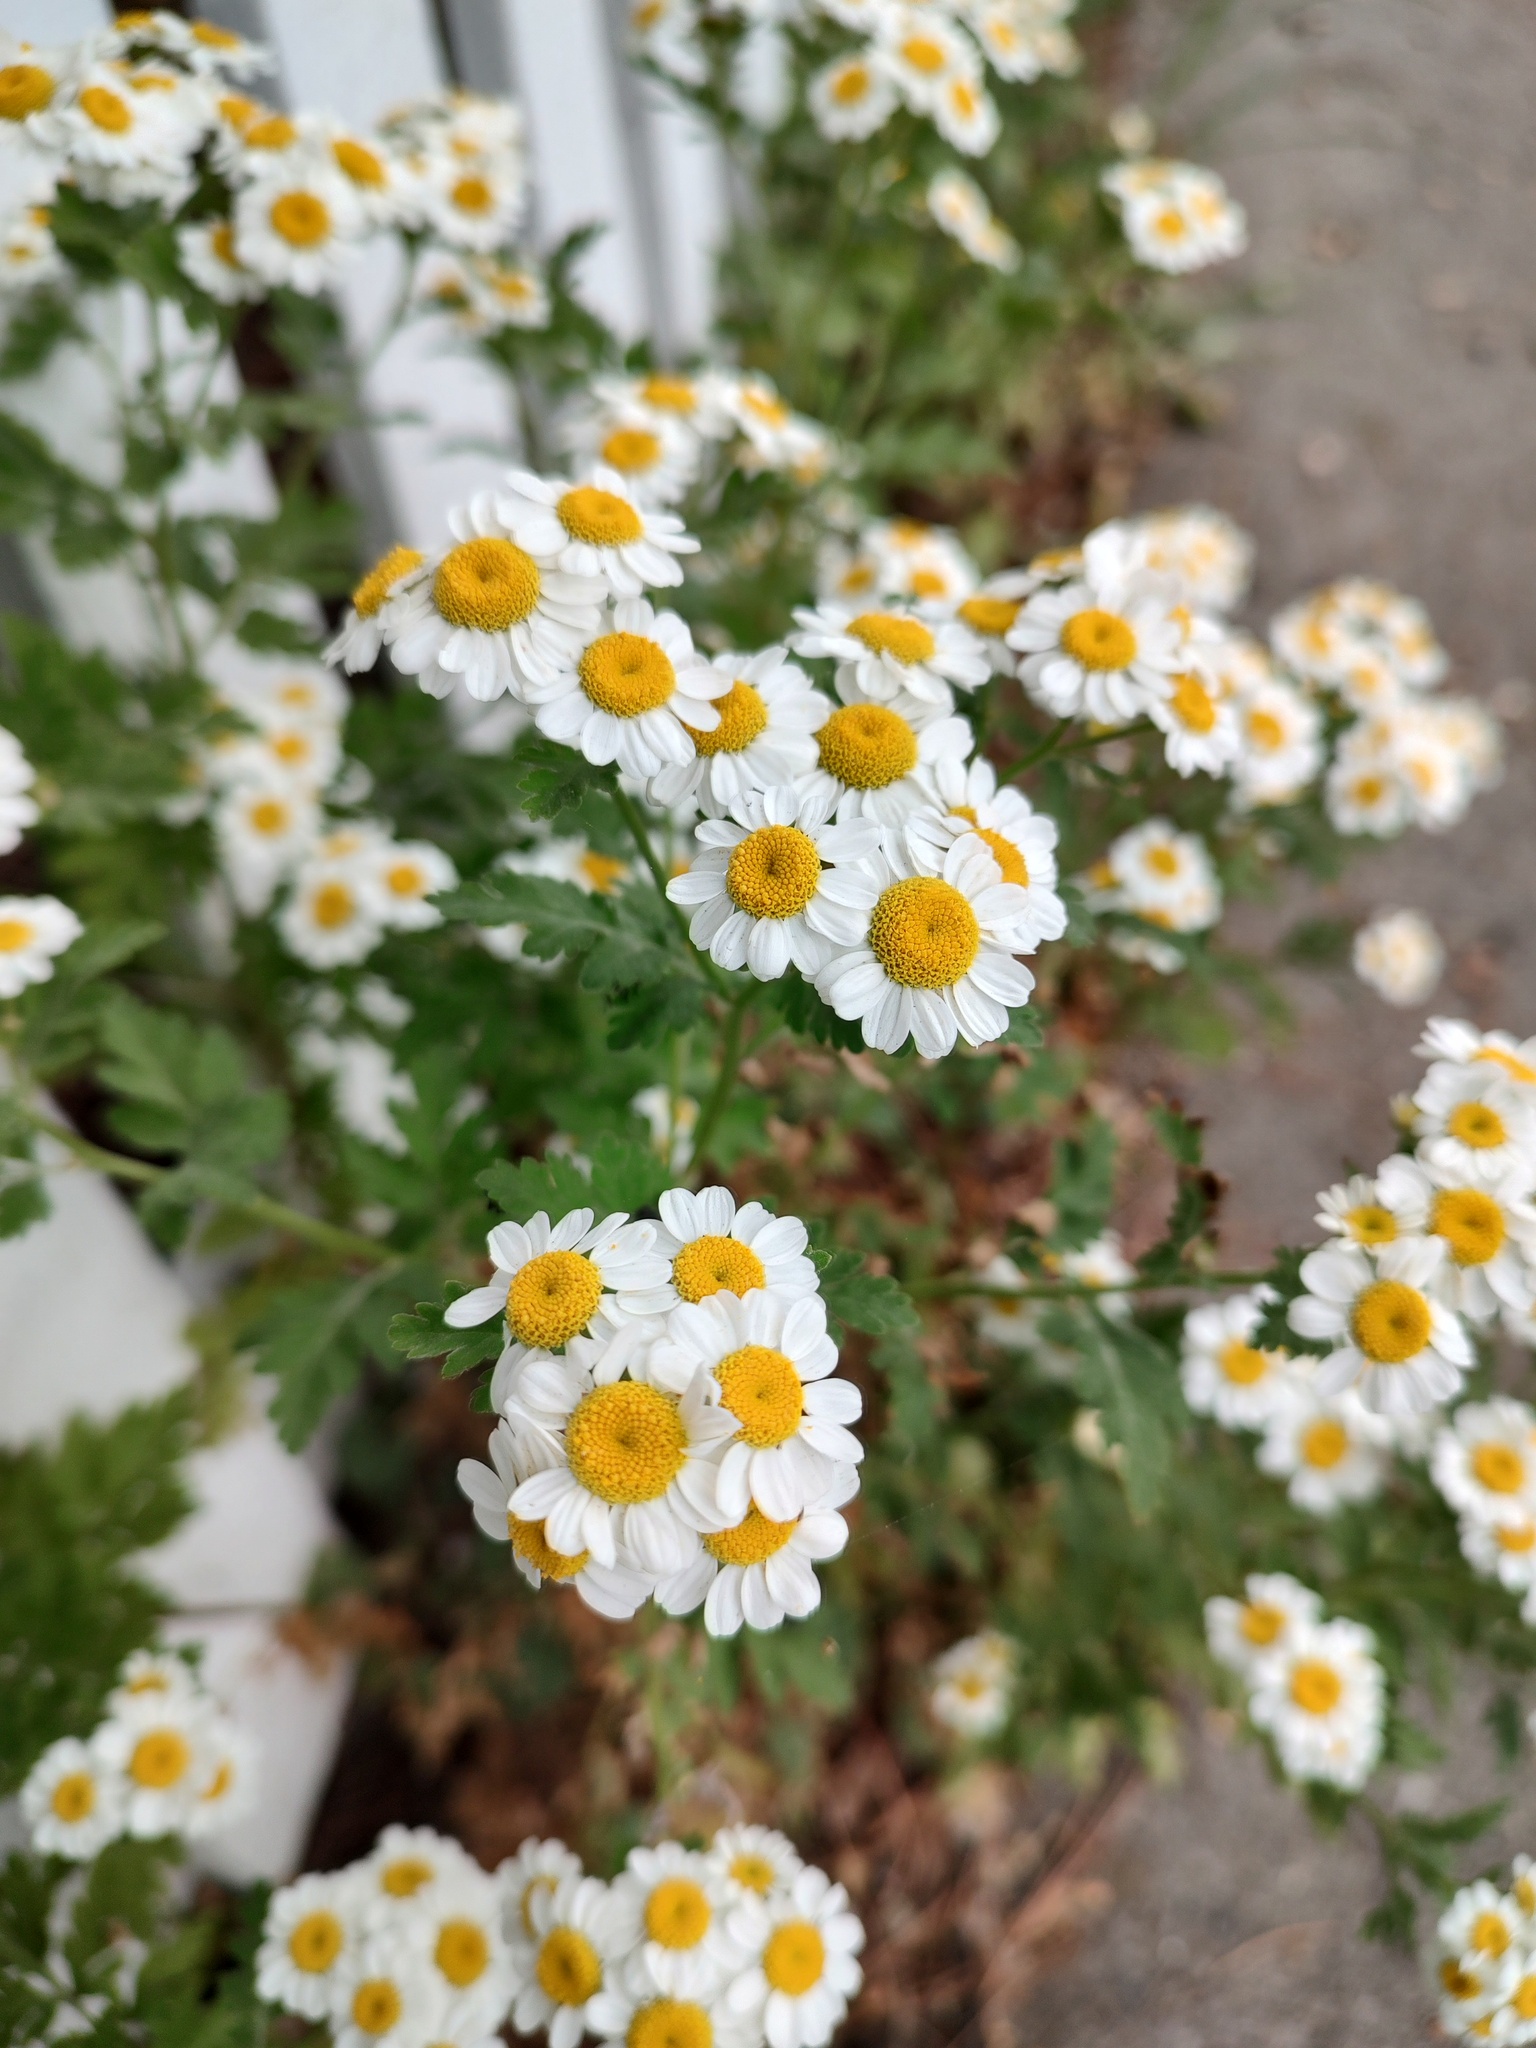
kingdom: Plantae
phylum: Tracheophyta
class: Magnoliopsida
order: Asterales
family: Asteraceae
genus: Tanacetum
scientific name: Tanacetum parthenium
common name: Feverfew
